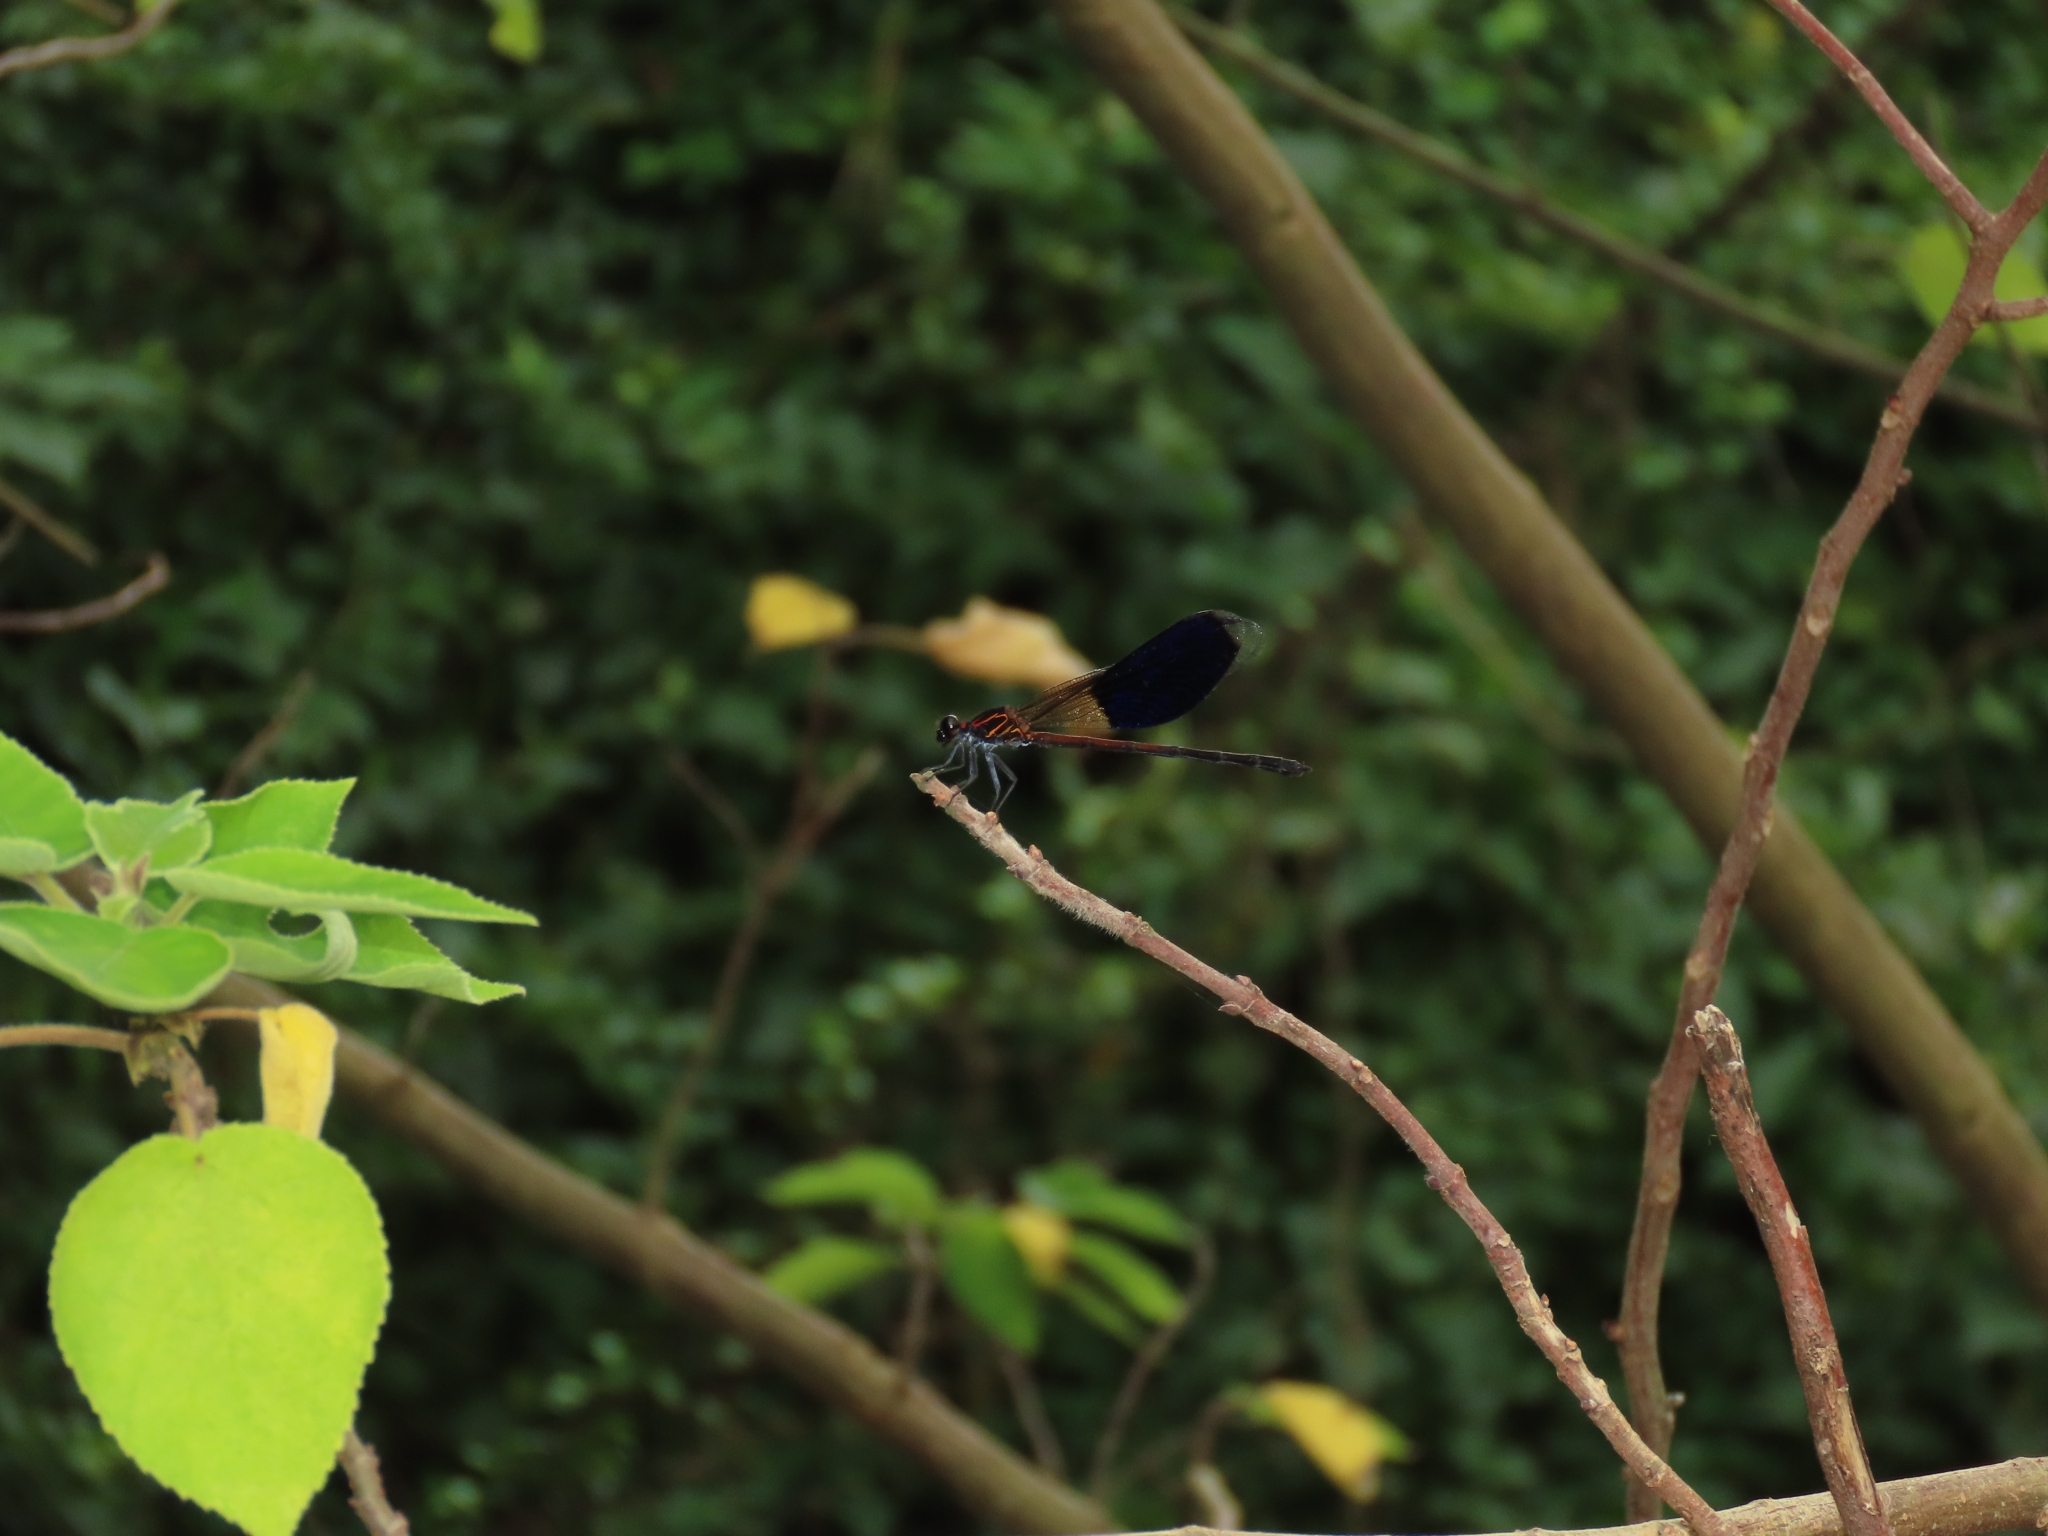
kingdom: Animalia
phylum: Arthropoda
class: Insecta
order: Odonata
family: Euphaeidae
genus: Euphaea
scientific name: Euphaea formosa
